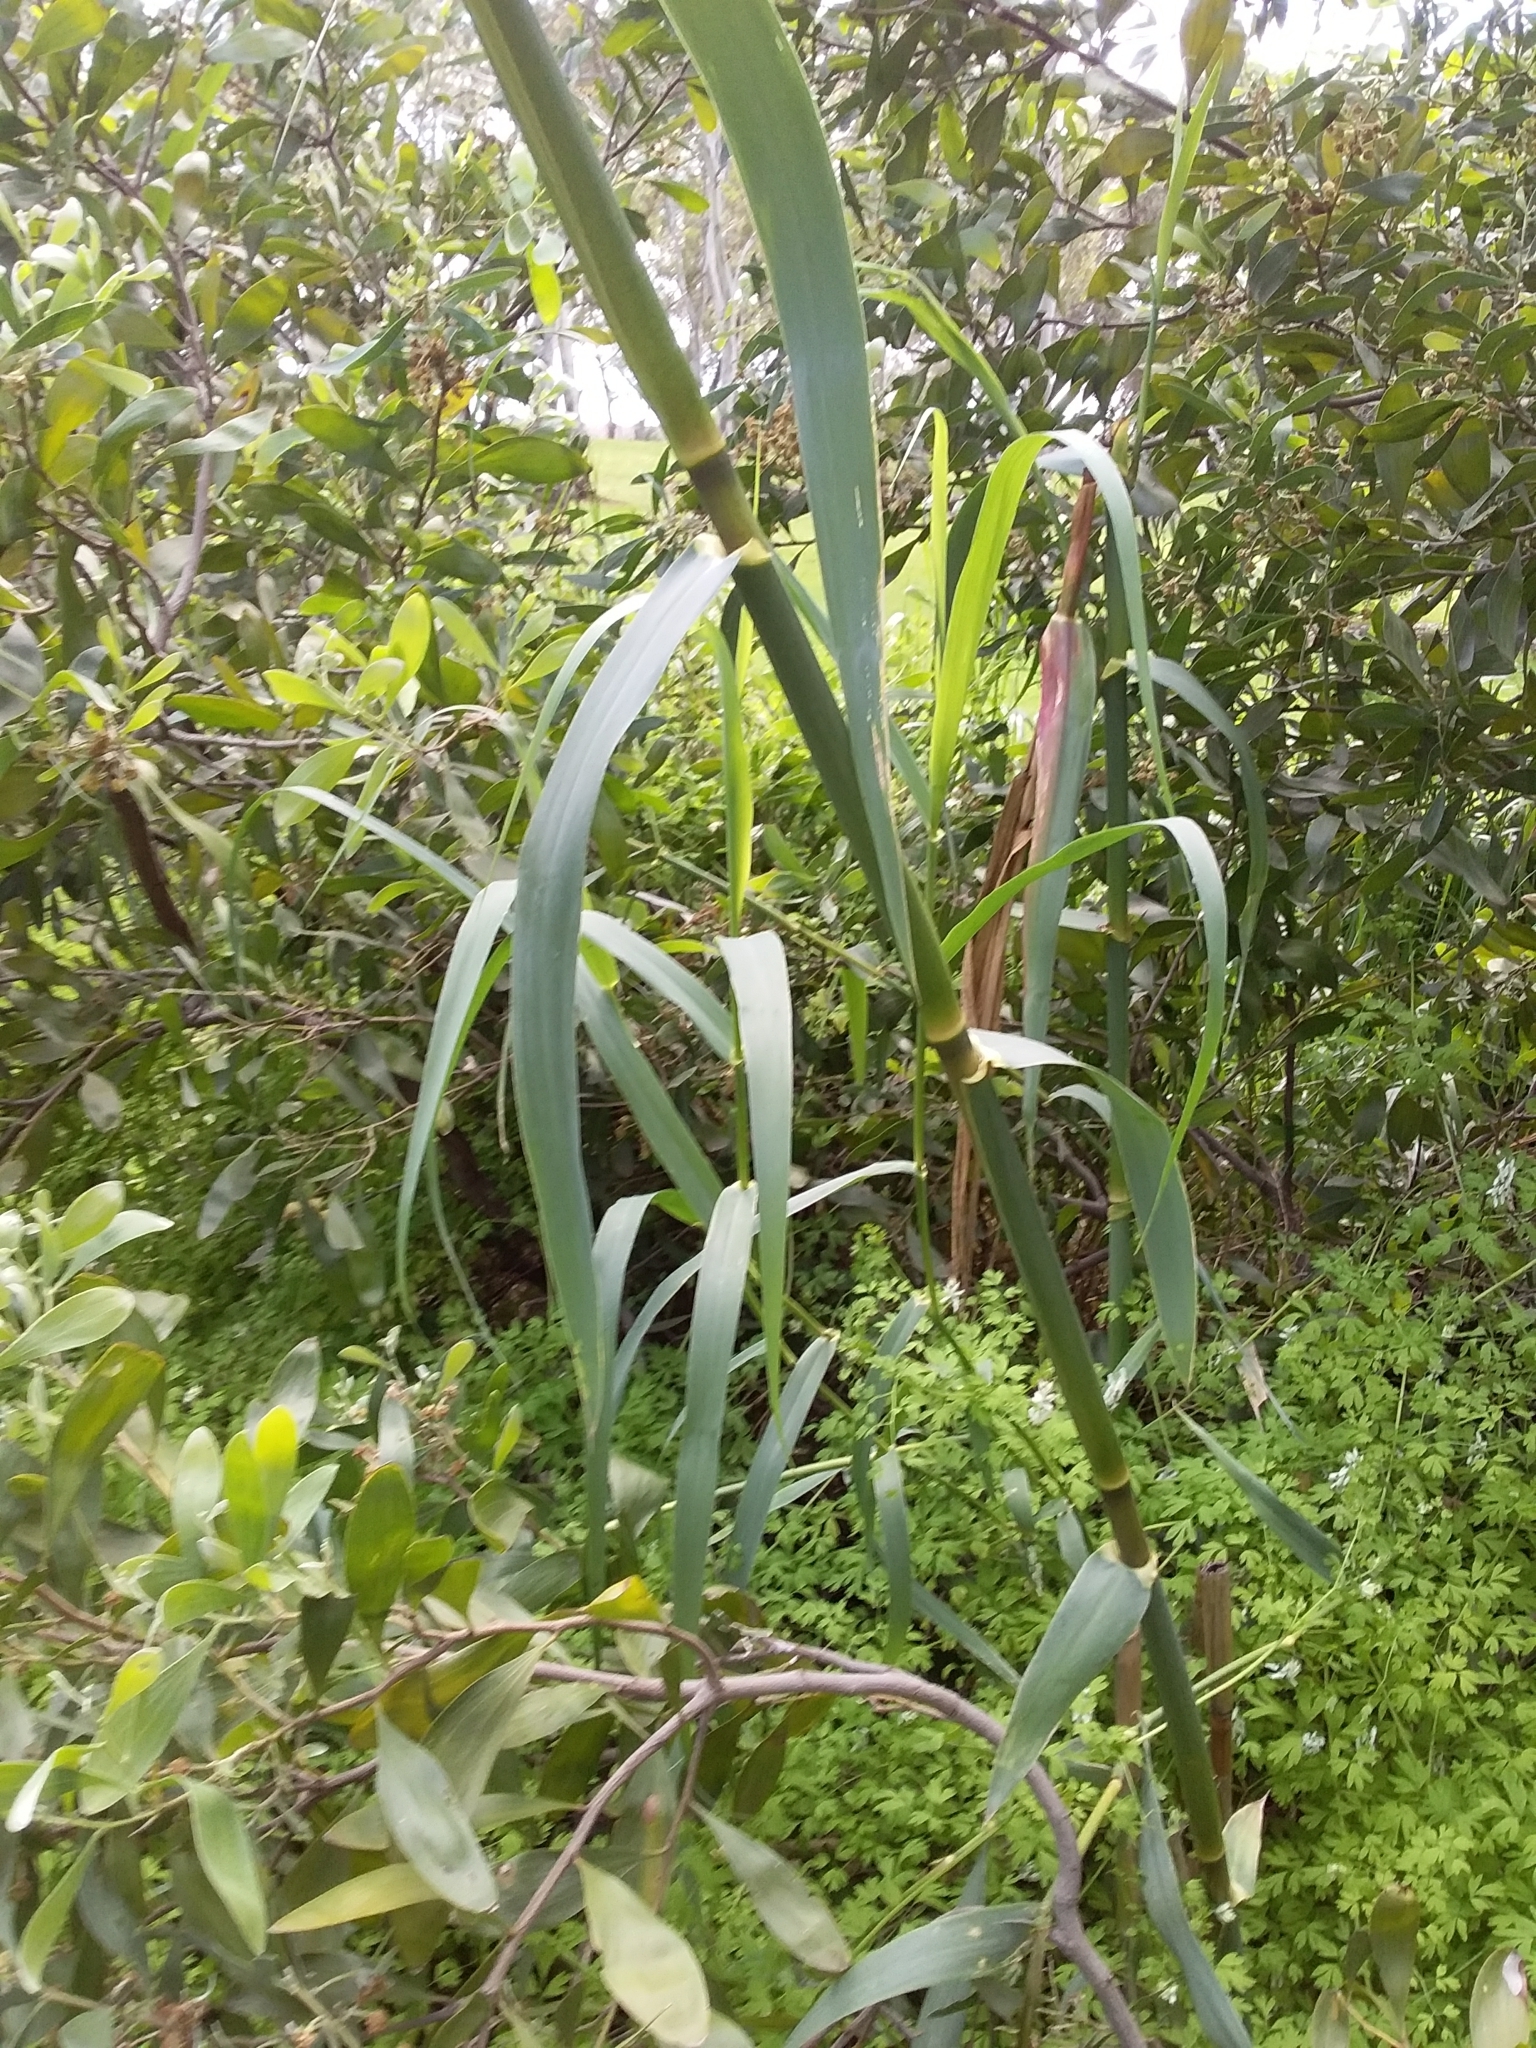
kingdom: Plantae
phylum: Tracheophyta
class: Liliopsida
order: Poales
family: Poaceae
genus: Arundo
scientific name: Arundo donax
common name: Giant reed
